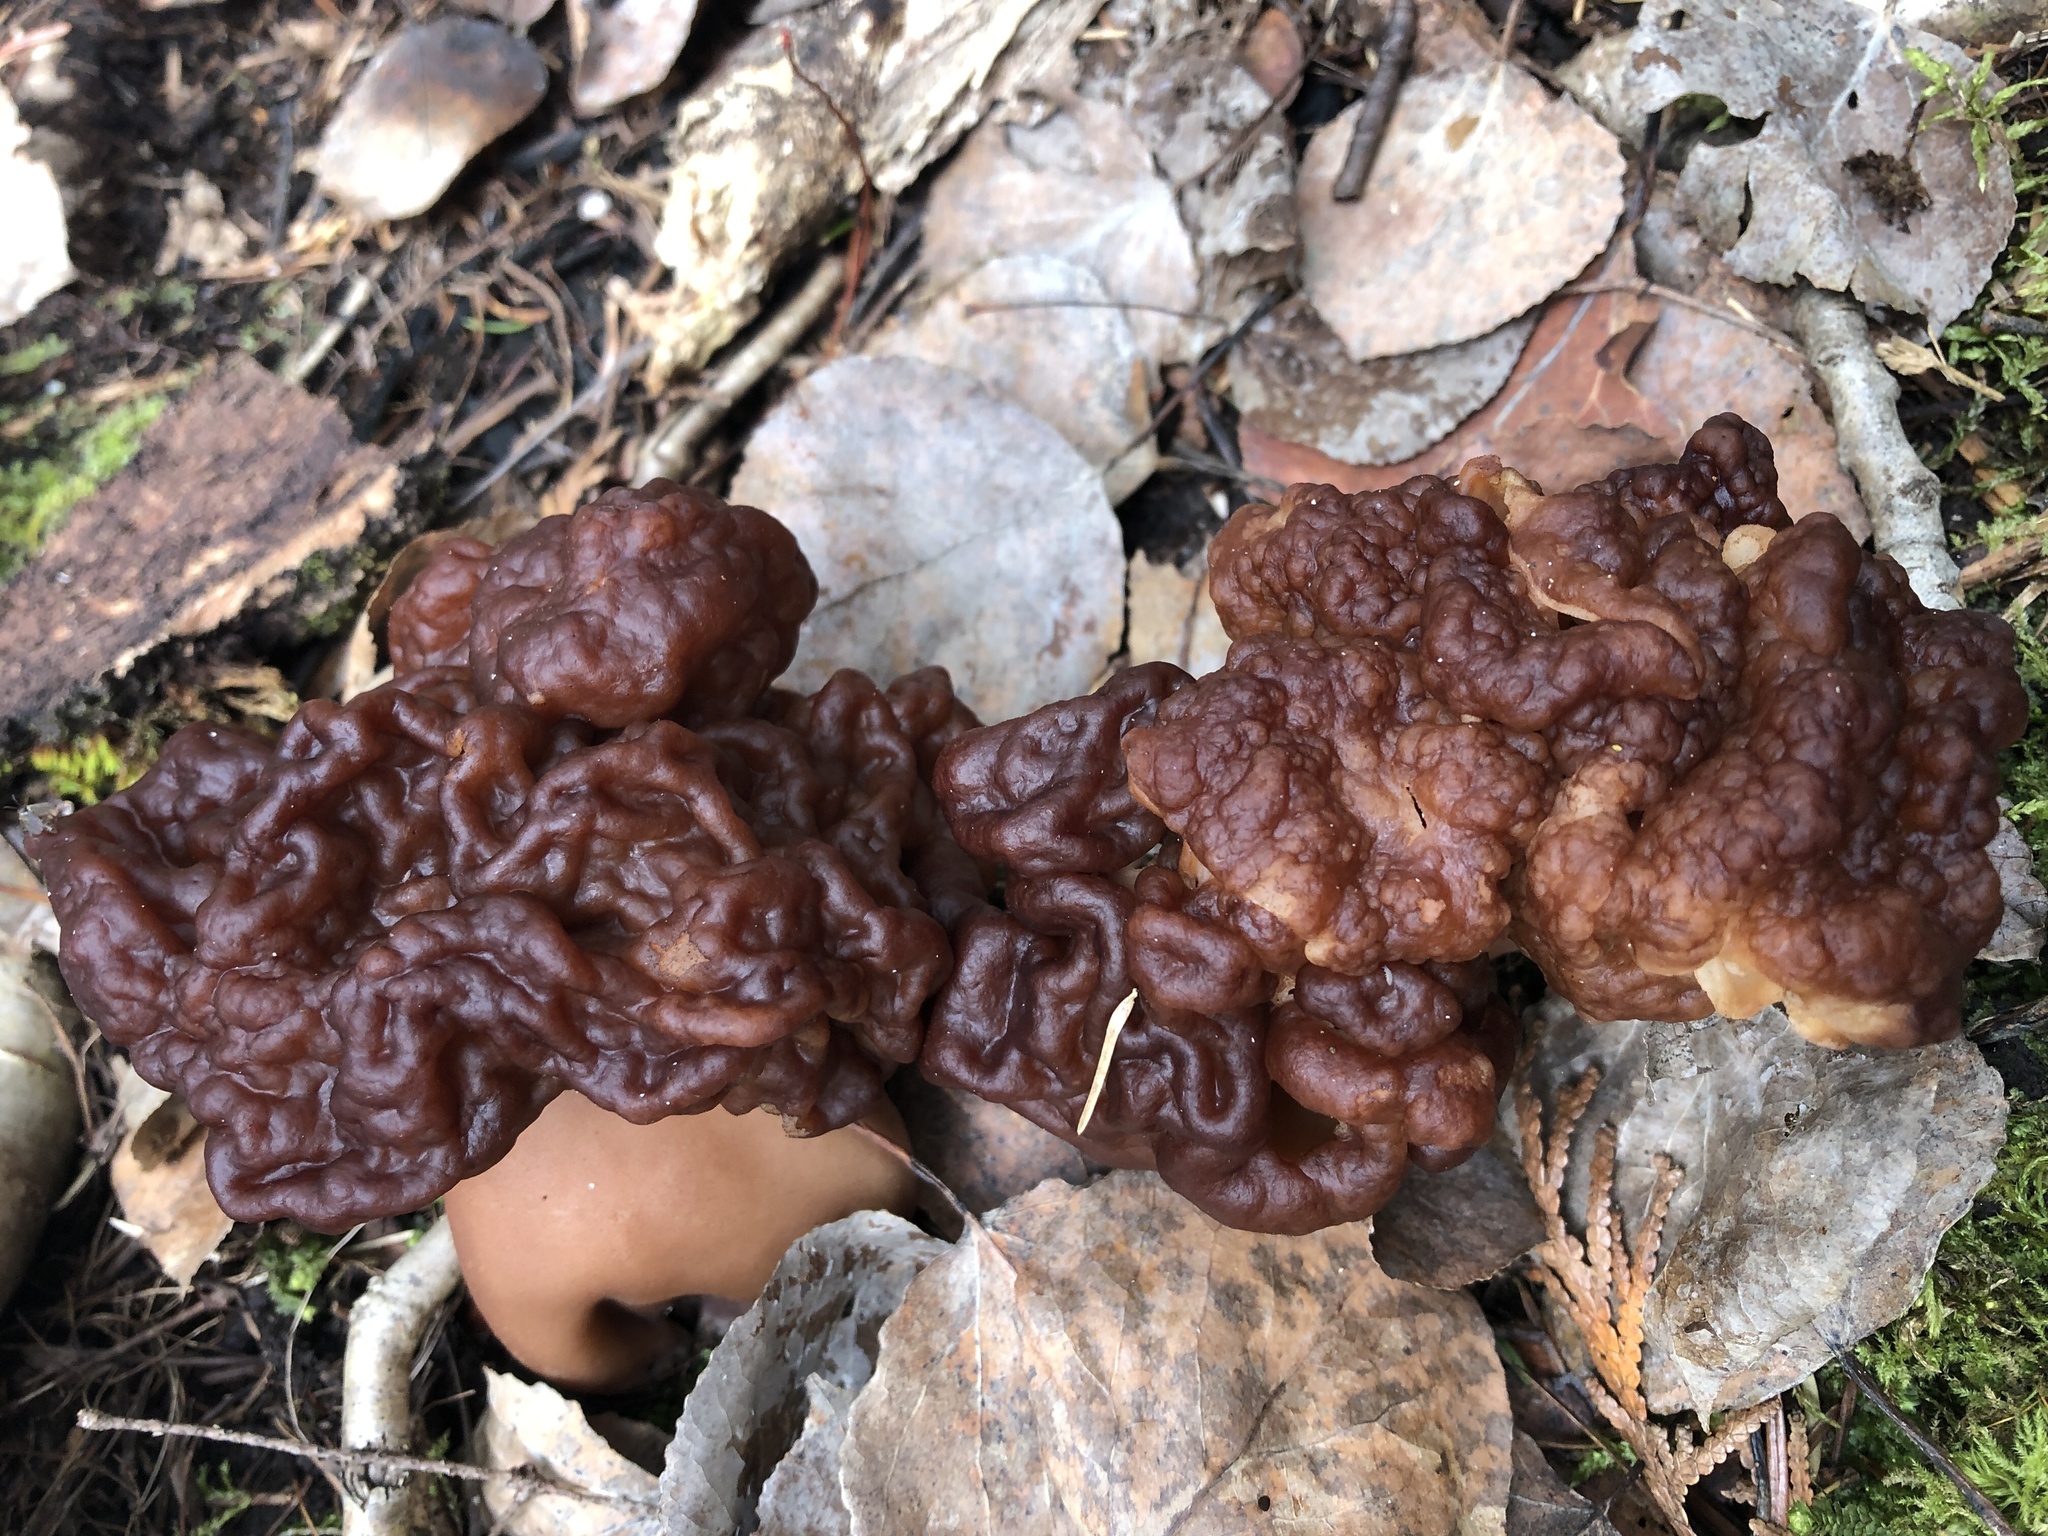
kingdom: Fungi
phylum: Ascomycota
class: Pezizomycetes
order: Pezizales
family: Discinaceae
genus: Gyromitra
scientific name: Gyromitra esculenta
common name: False morel
